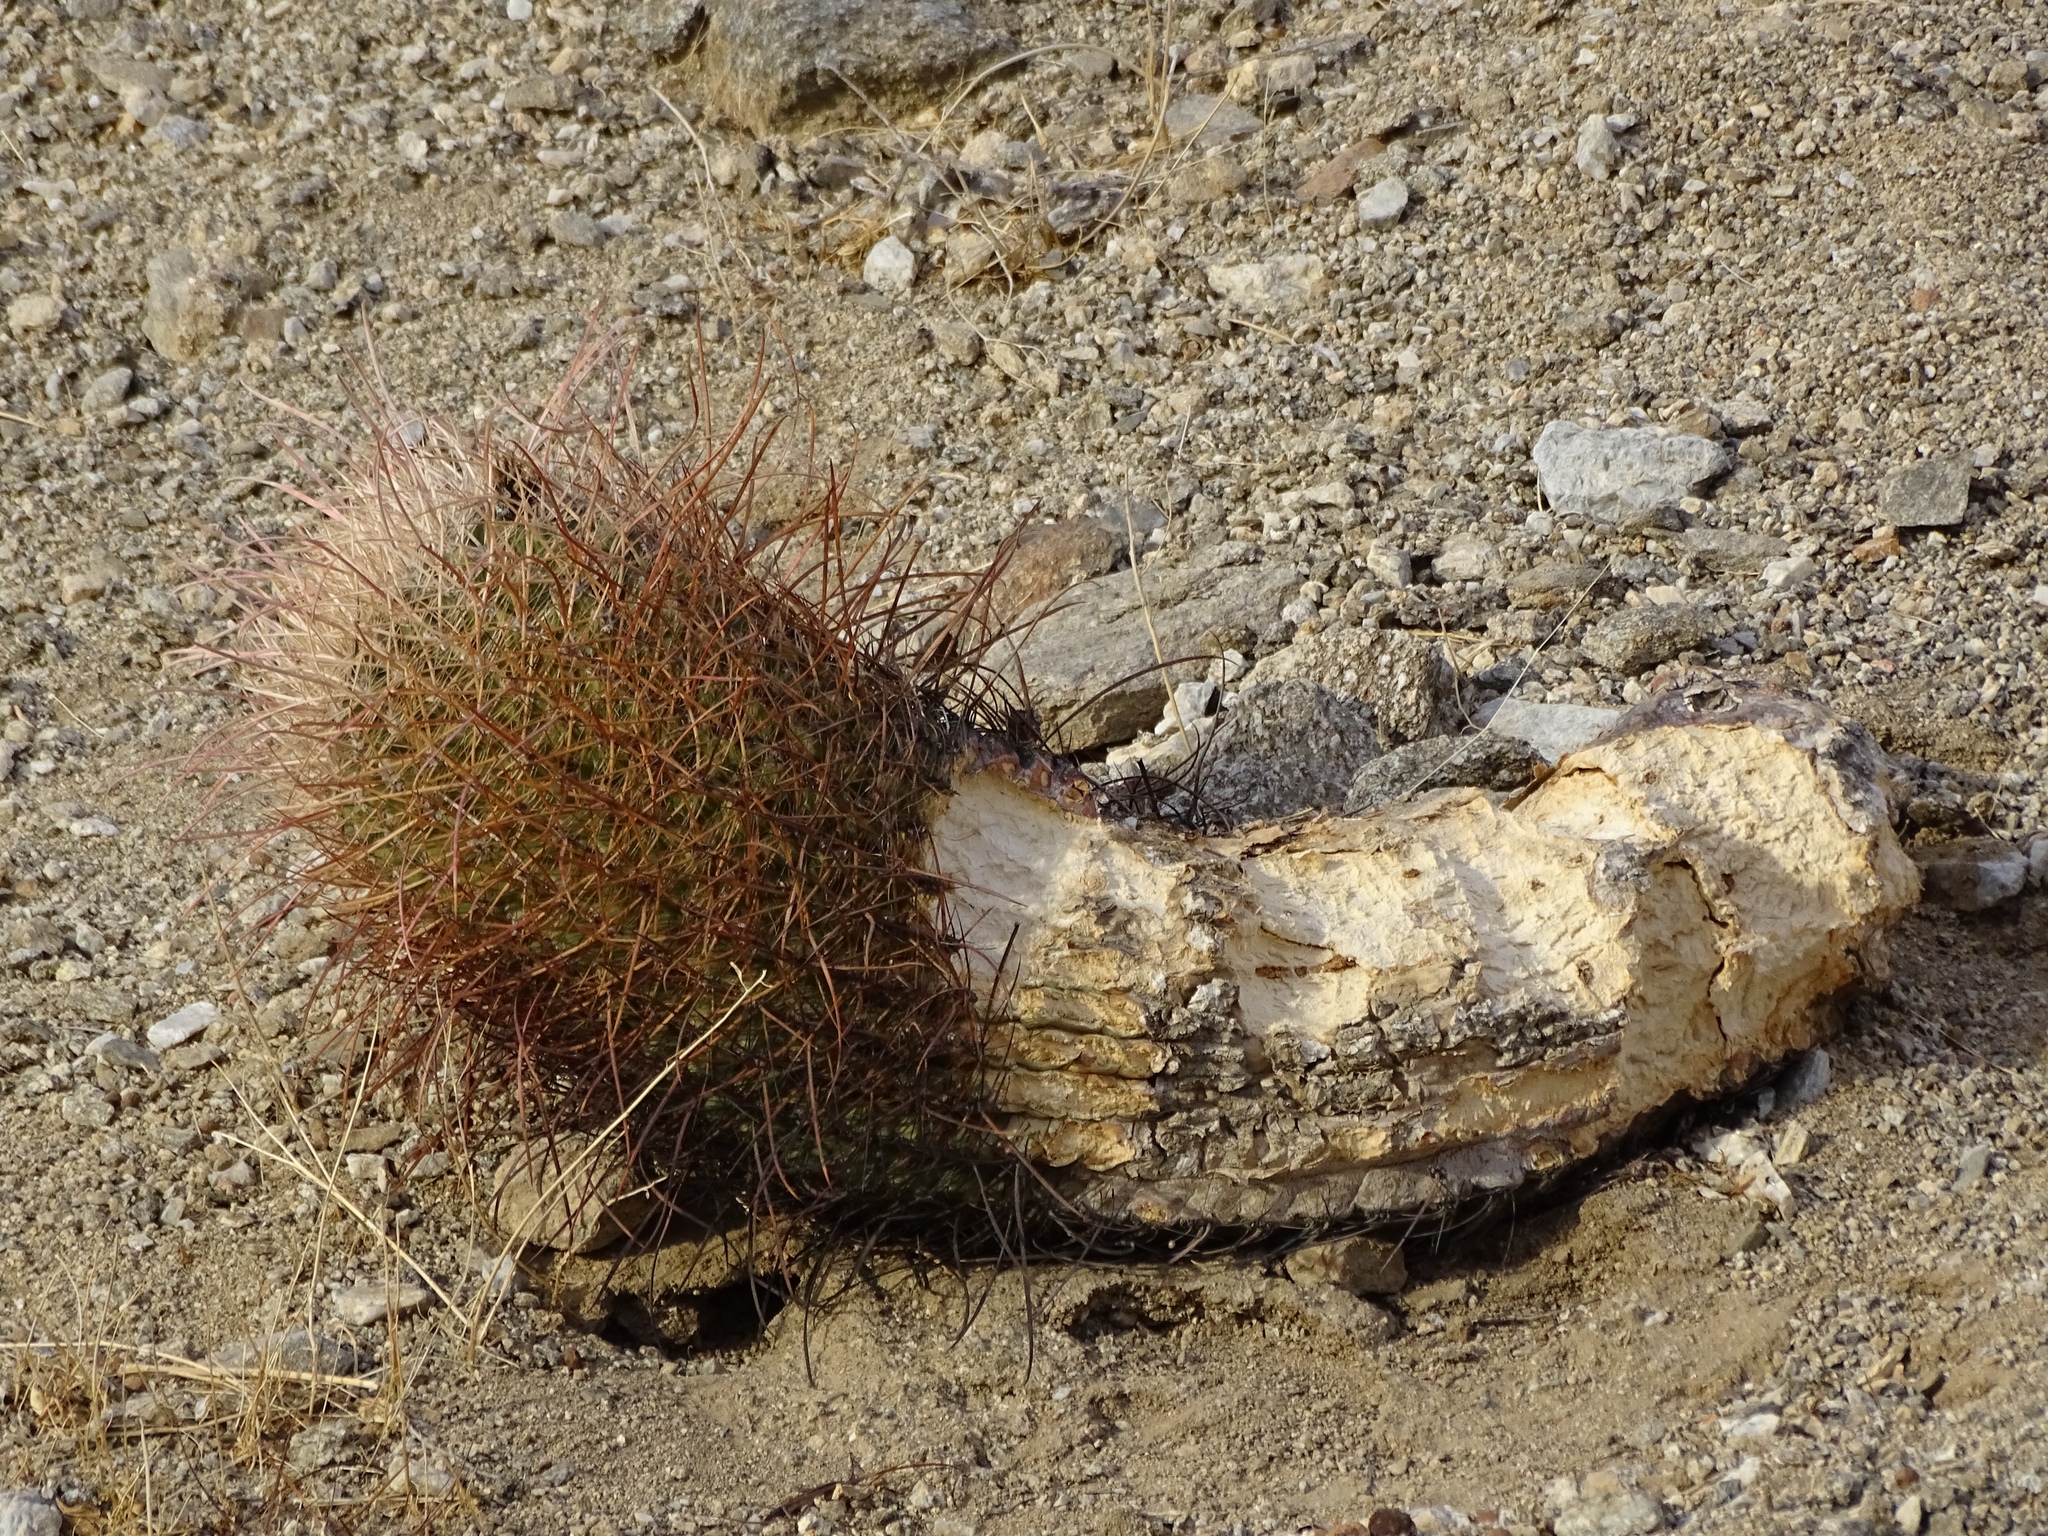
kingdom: Plantae
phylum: Tracheophyta
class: Magnoliopsida
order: Caryophyllales
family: Cactaceae
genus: Ferocactus
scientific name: Ferocactus cylindraceus
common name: California barrel cactus
